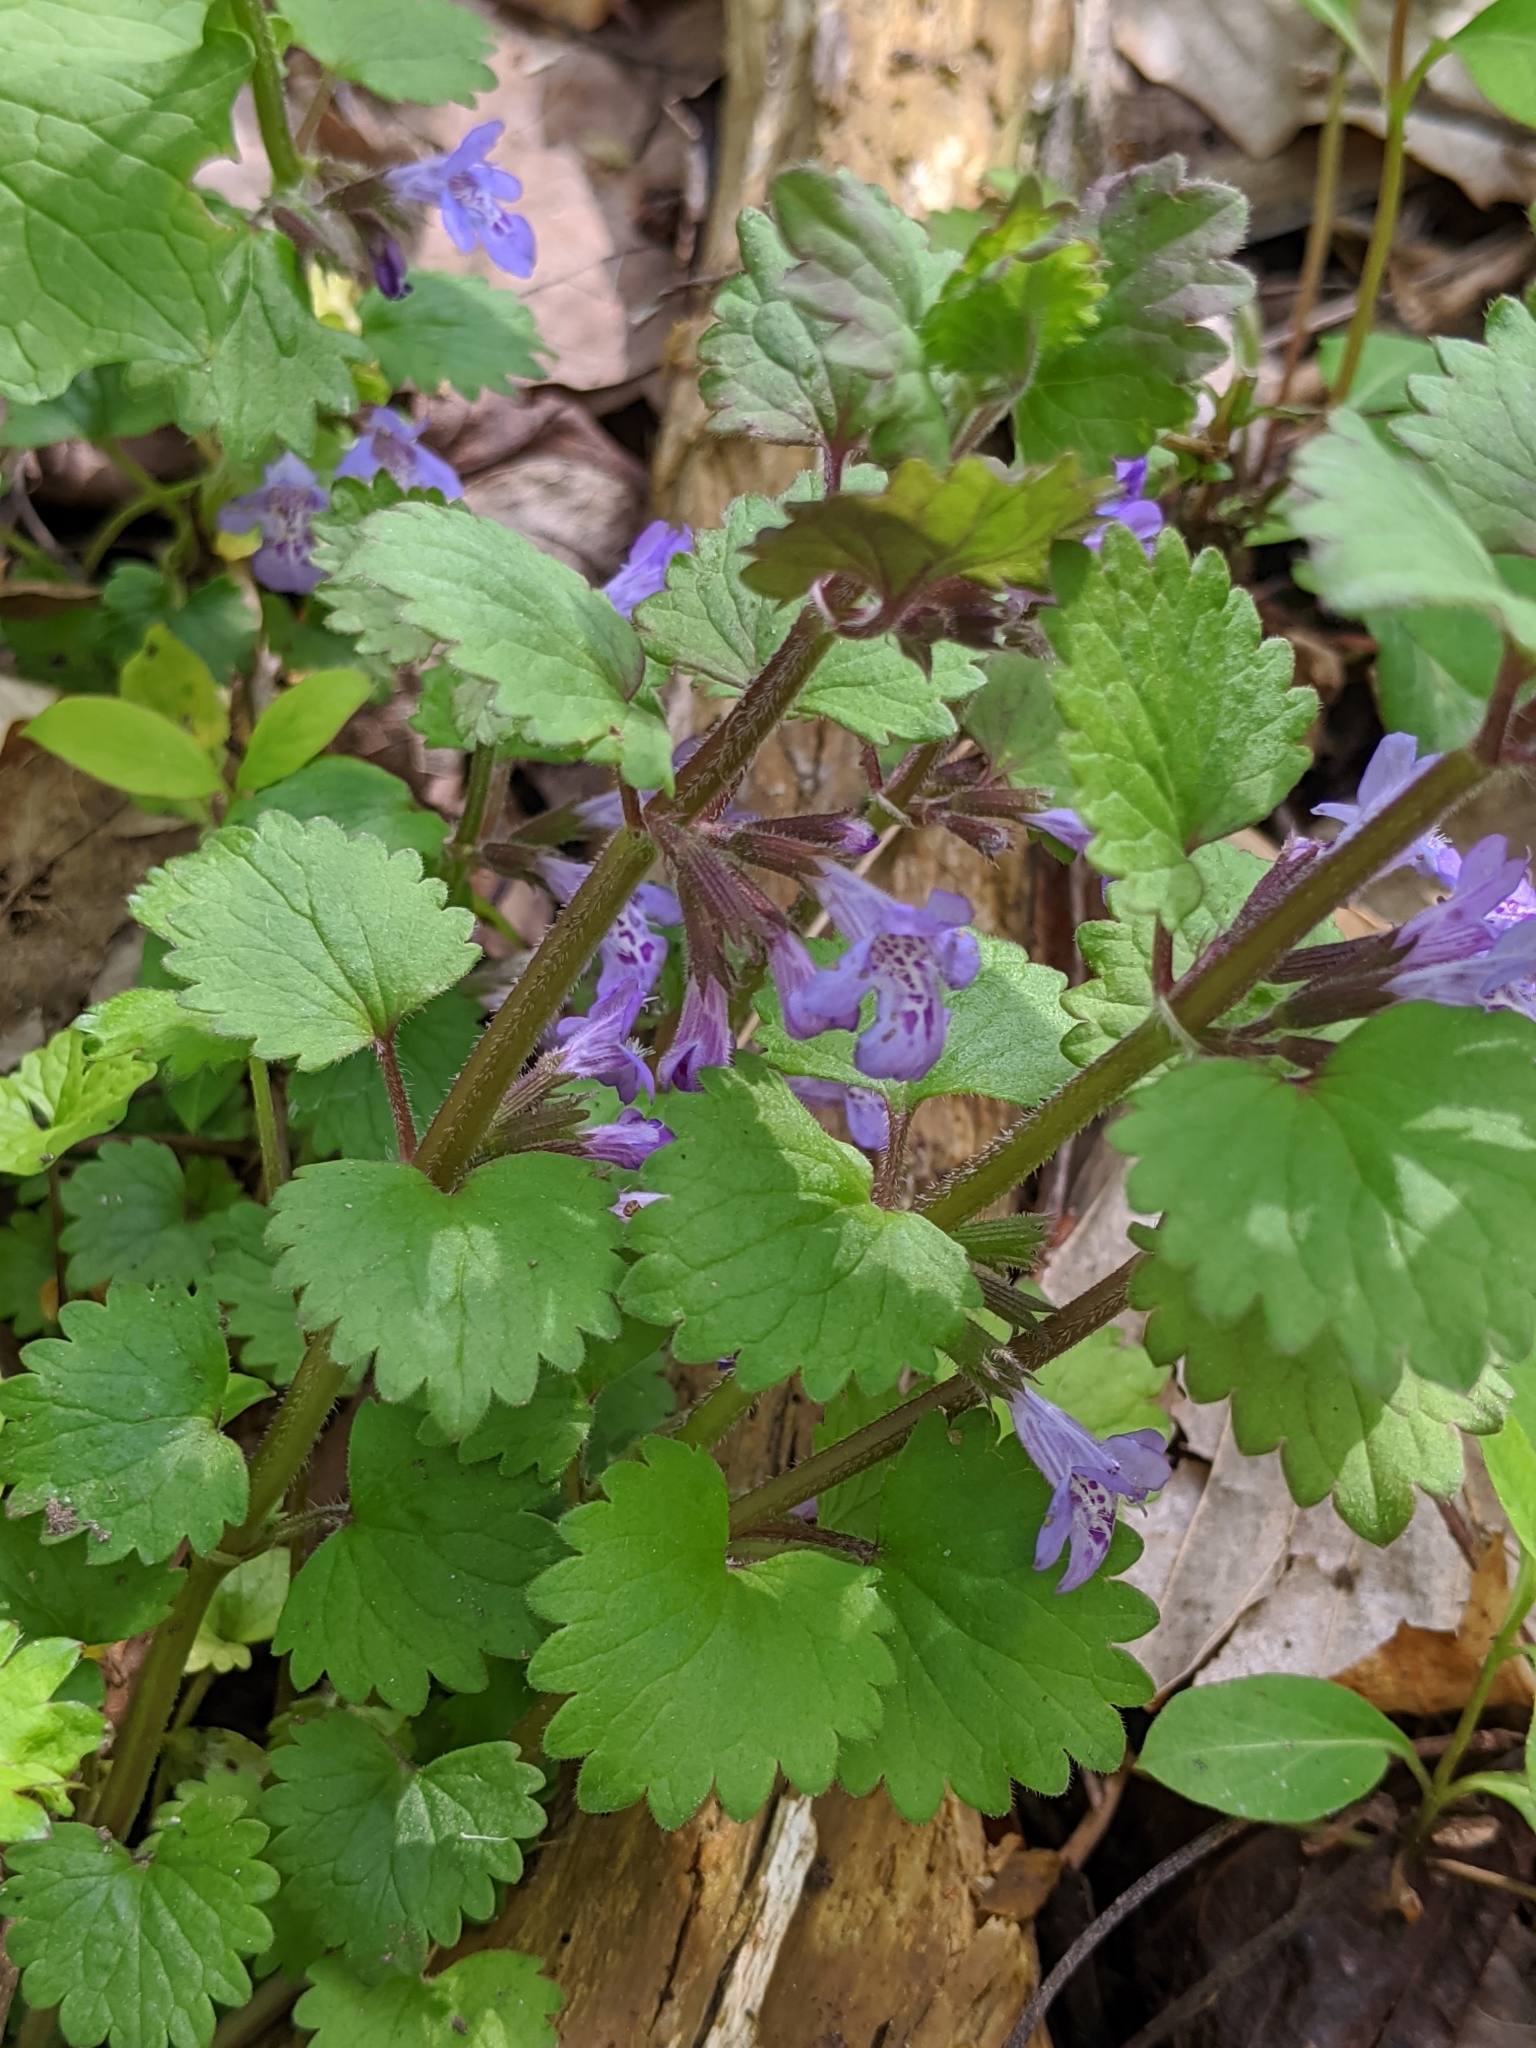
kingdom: Plantae
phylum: Tracheophyta
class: Magnoliopsida
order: Lamiales
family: Lamiaceae
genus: Glechoma
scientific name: Glechoma hederacea
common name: Ground ivy
